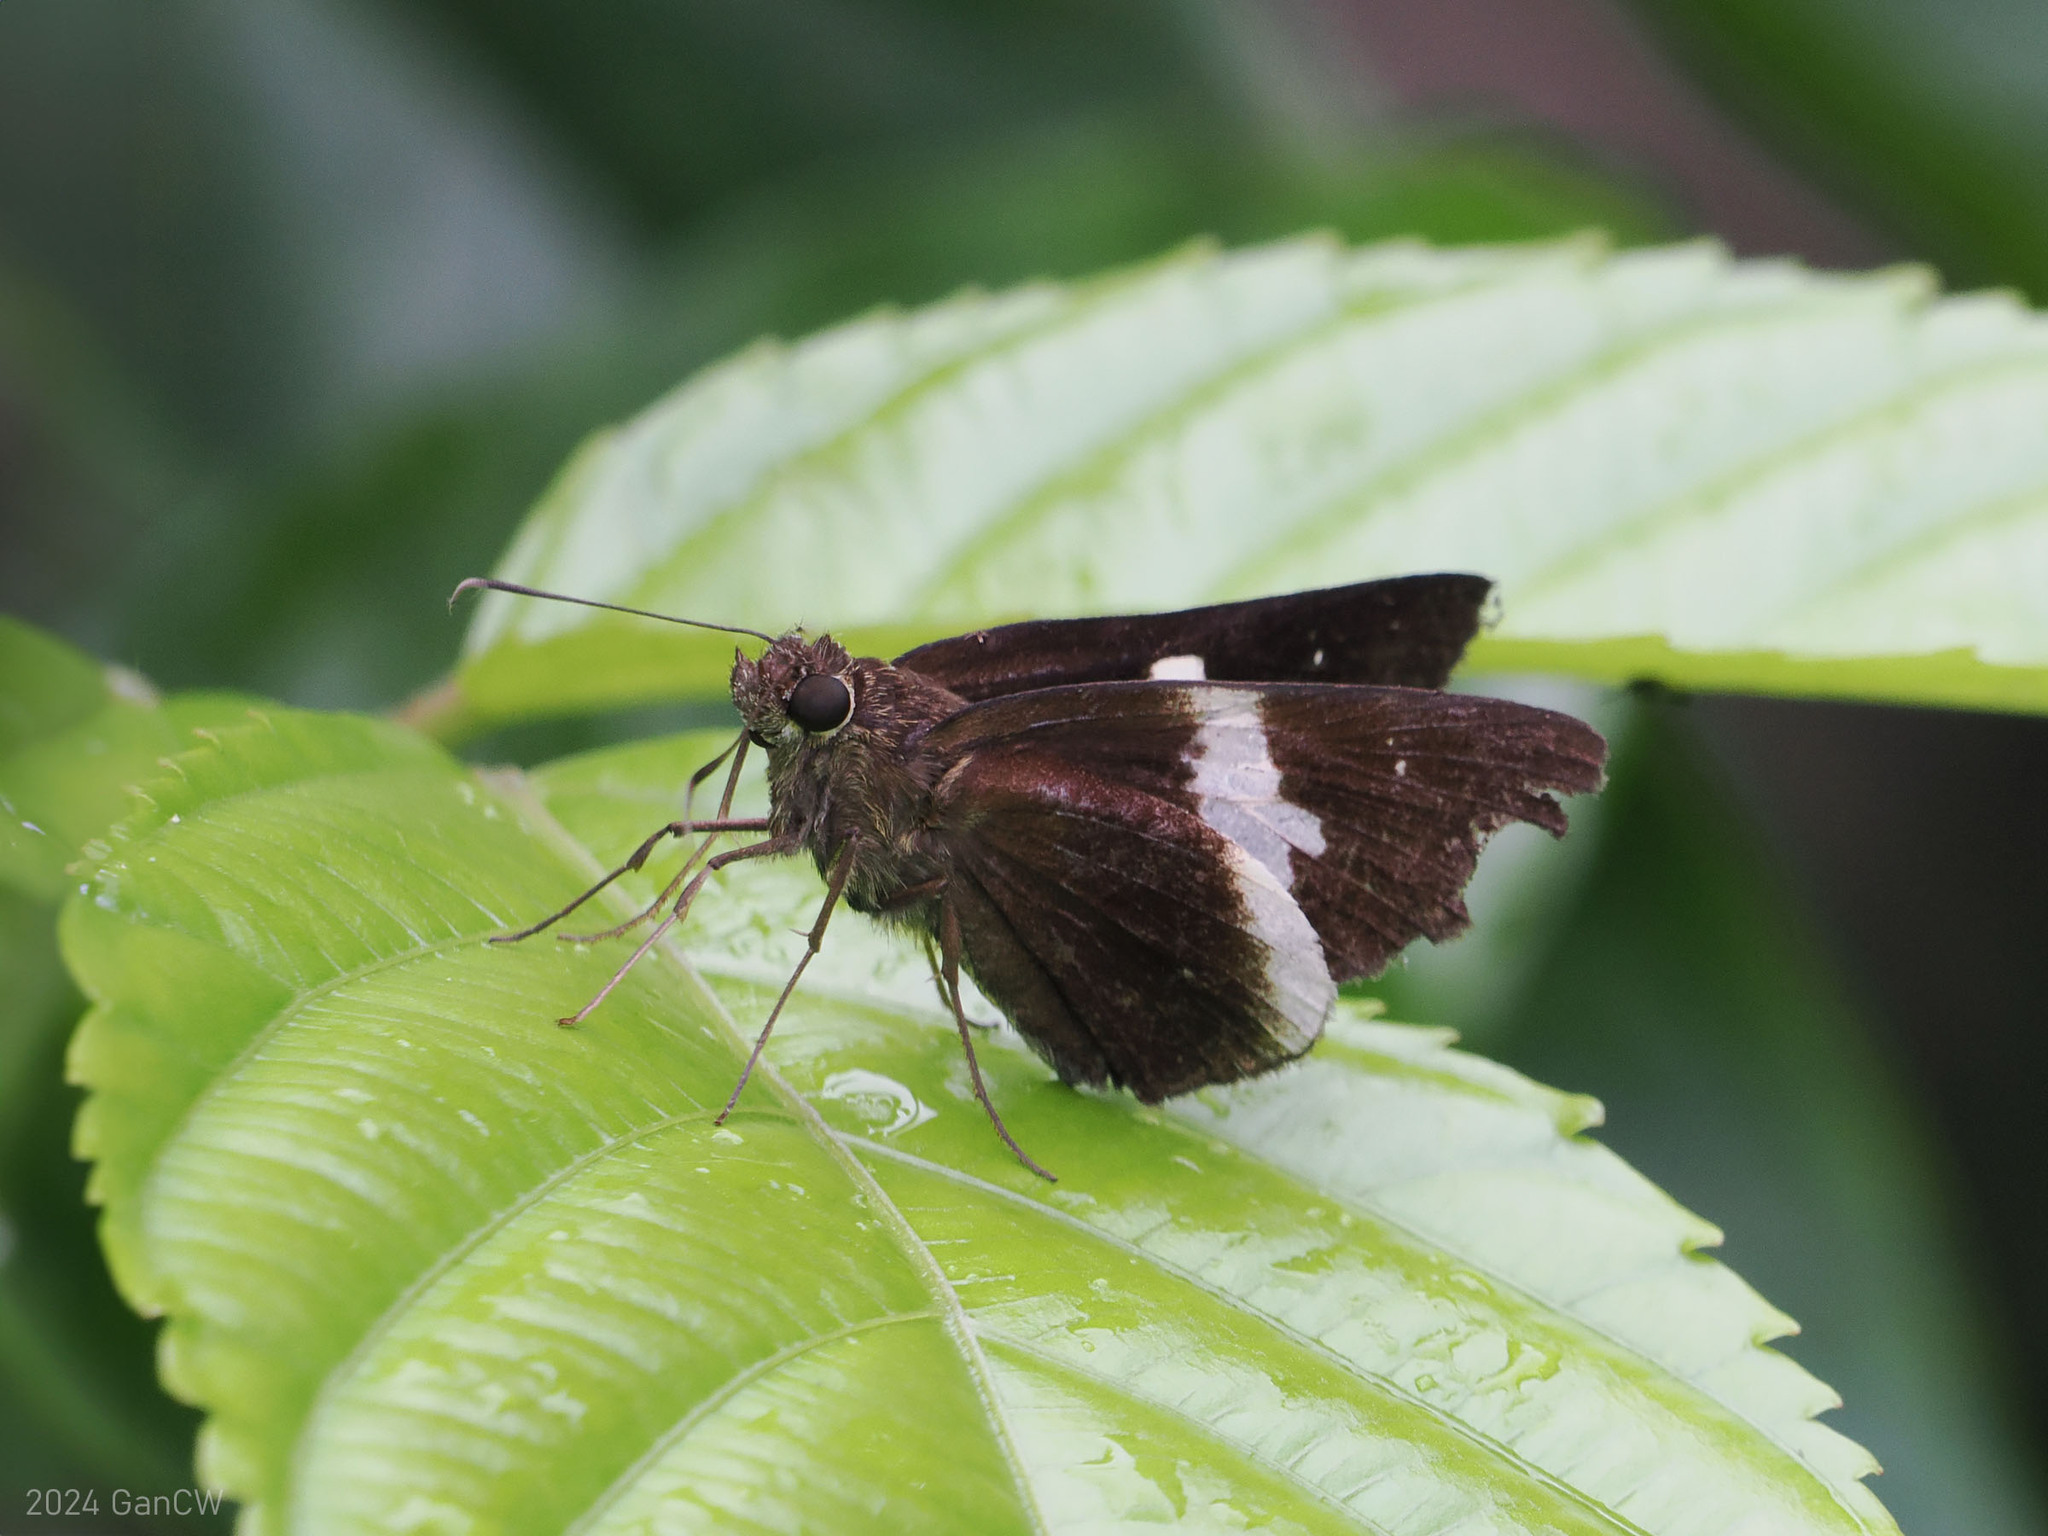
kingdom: Animalia
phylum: Arthropoda
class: Insecta
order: Lepidoptera
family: Hesperiidae
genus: Lotongus
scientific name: Lotongus calathus
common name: White-tipped palmer
